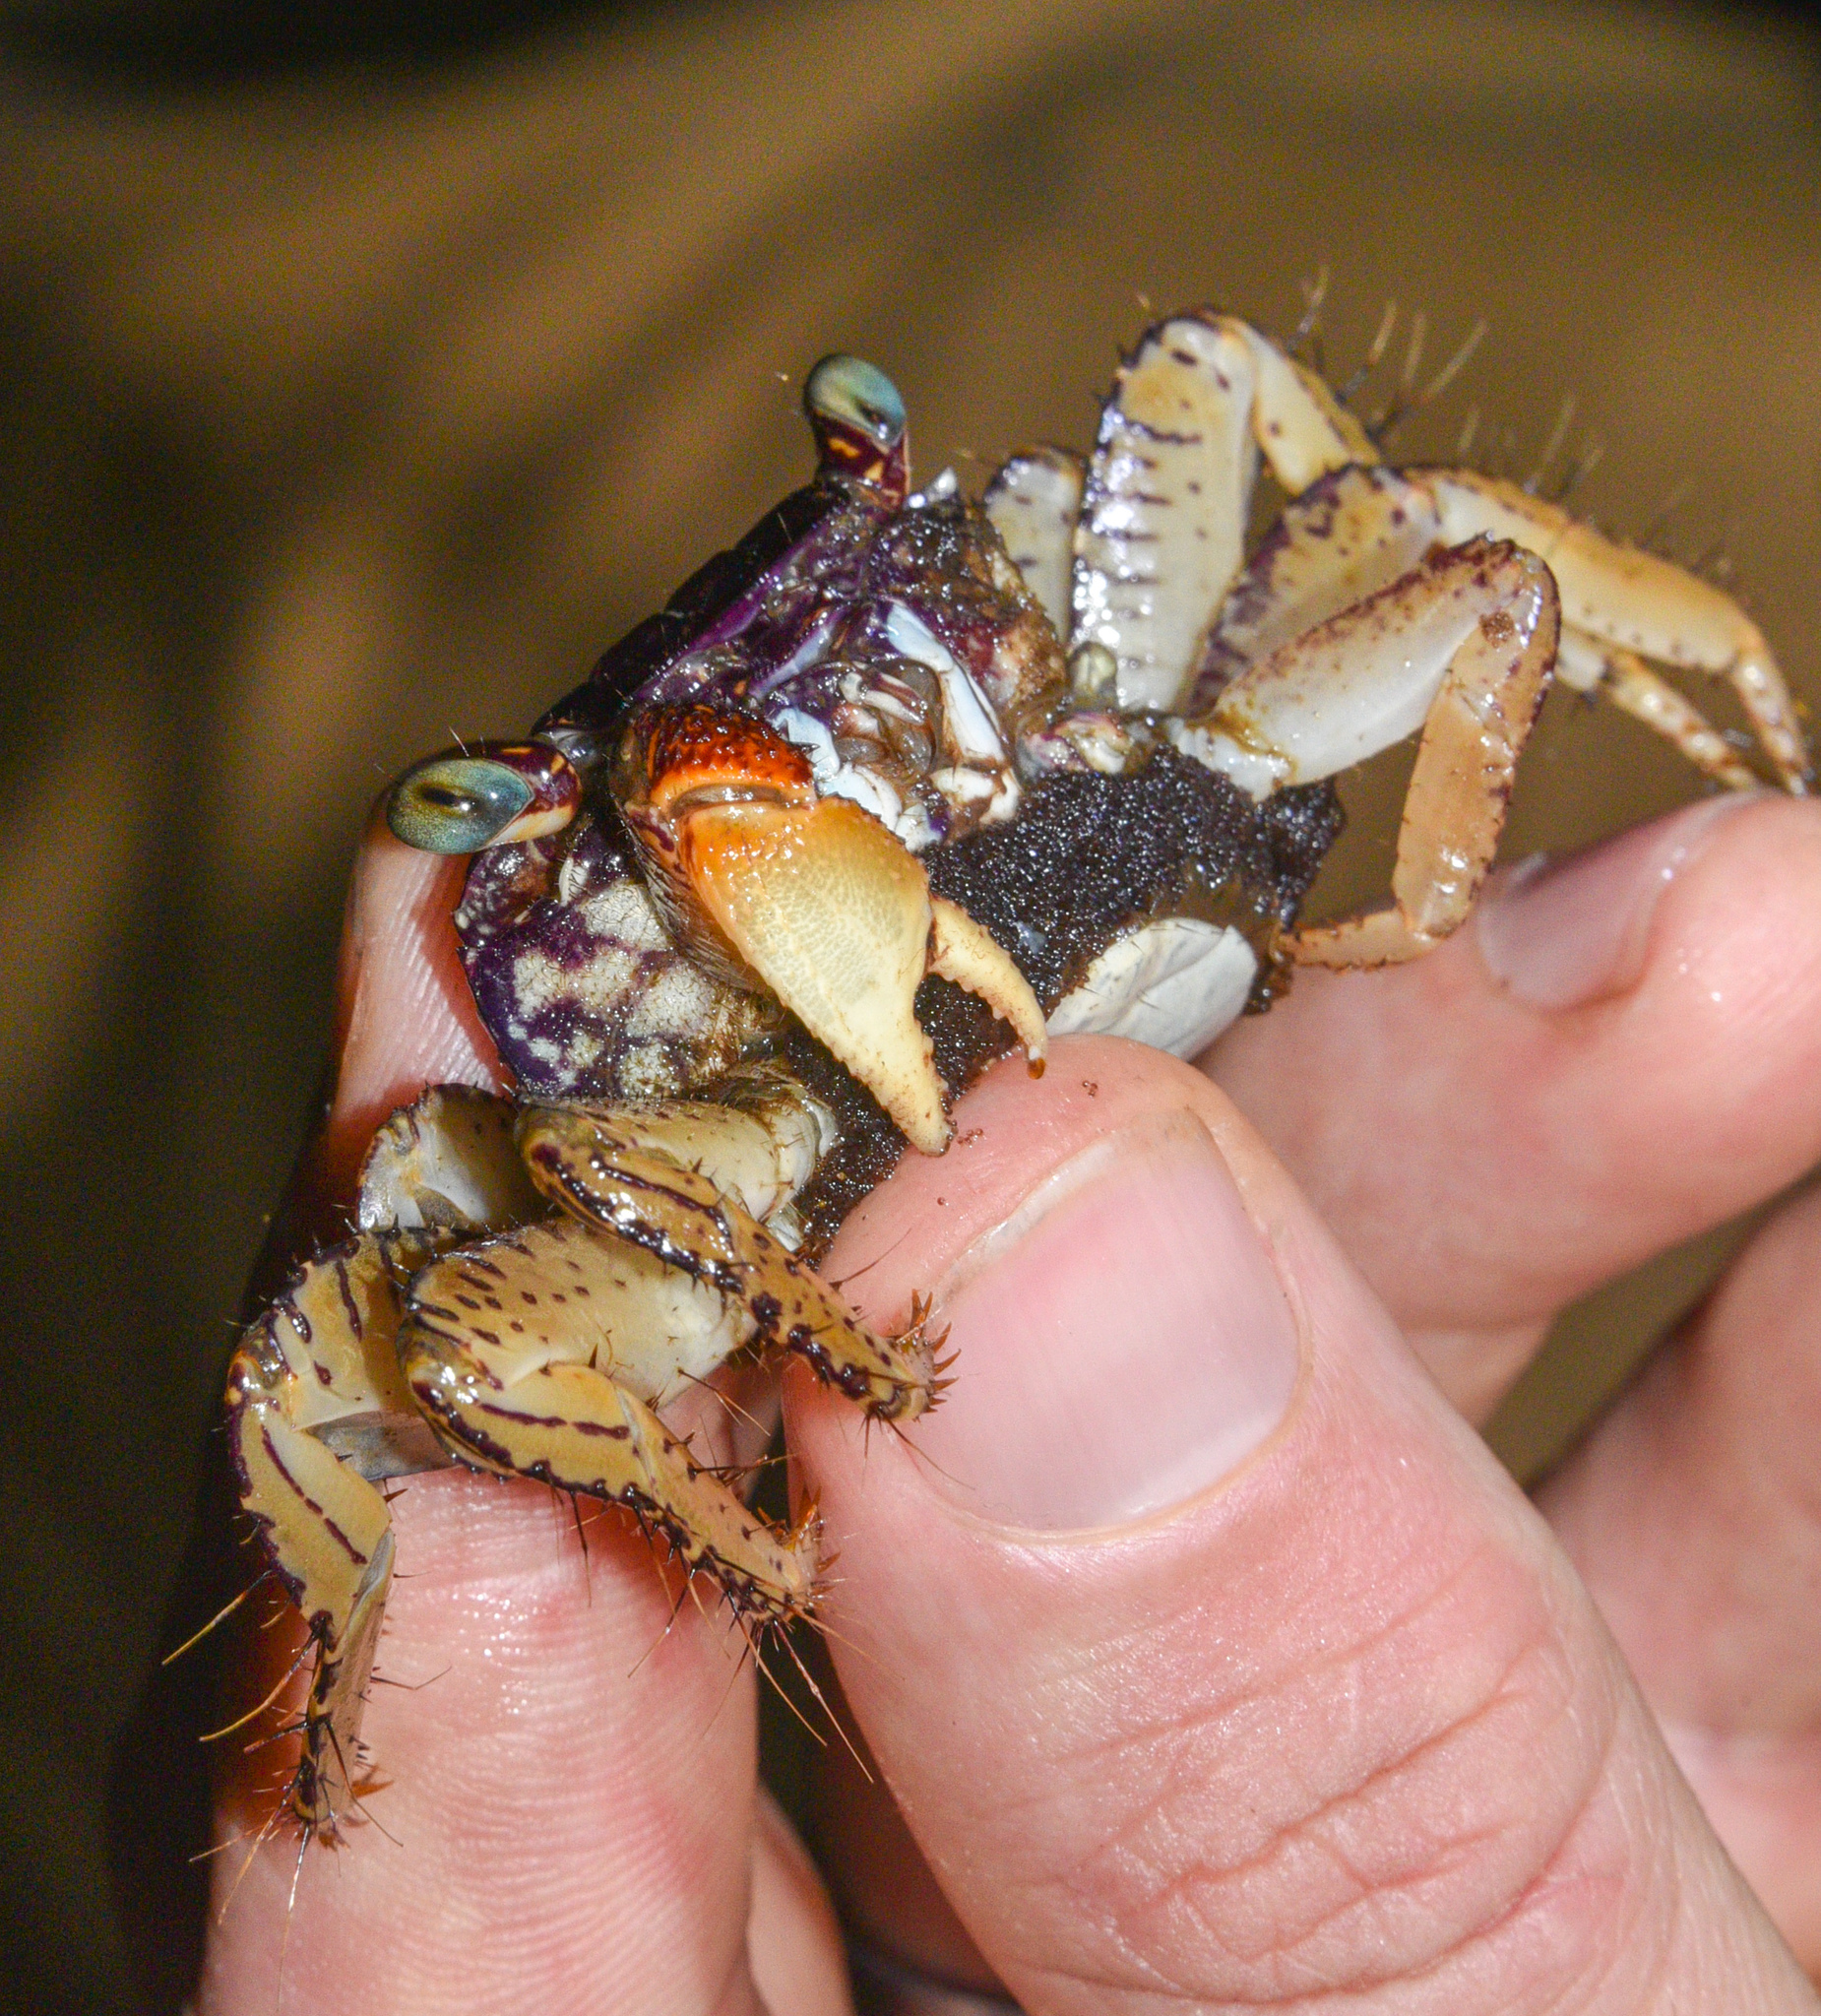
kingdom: Animalia
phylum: Arthropoda
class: Malacostraca
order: Decapoda
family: Grapsidae
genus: Goniopsis
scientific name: Goniopsis pulchra
